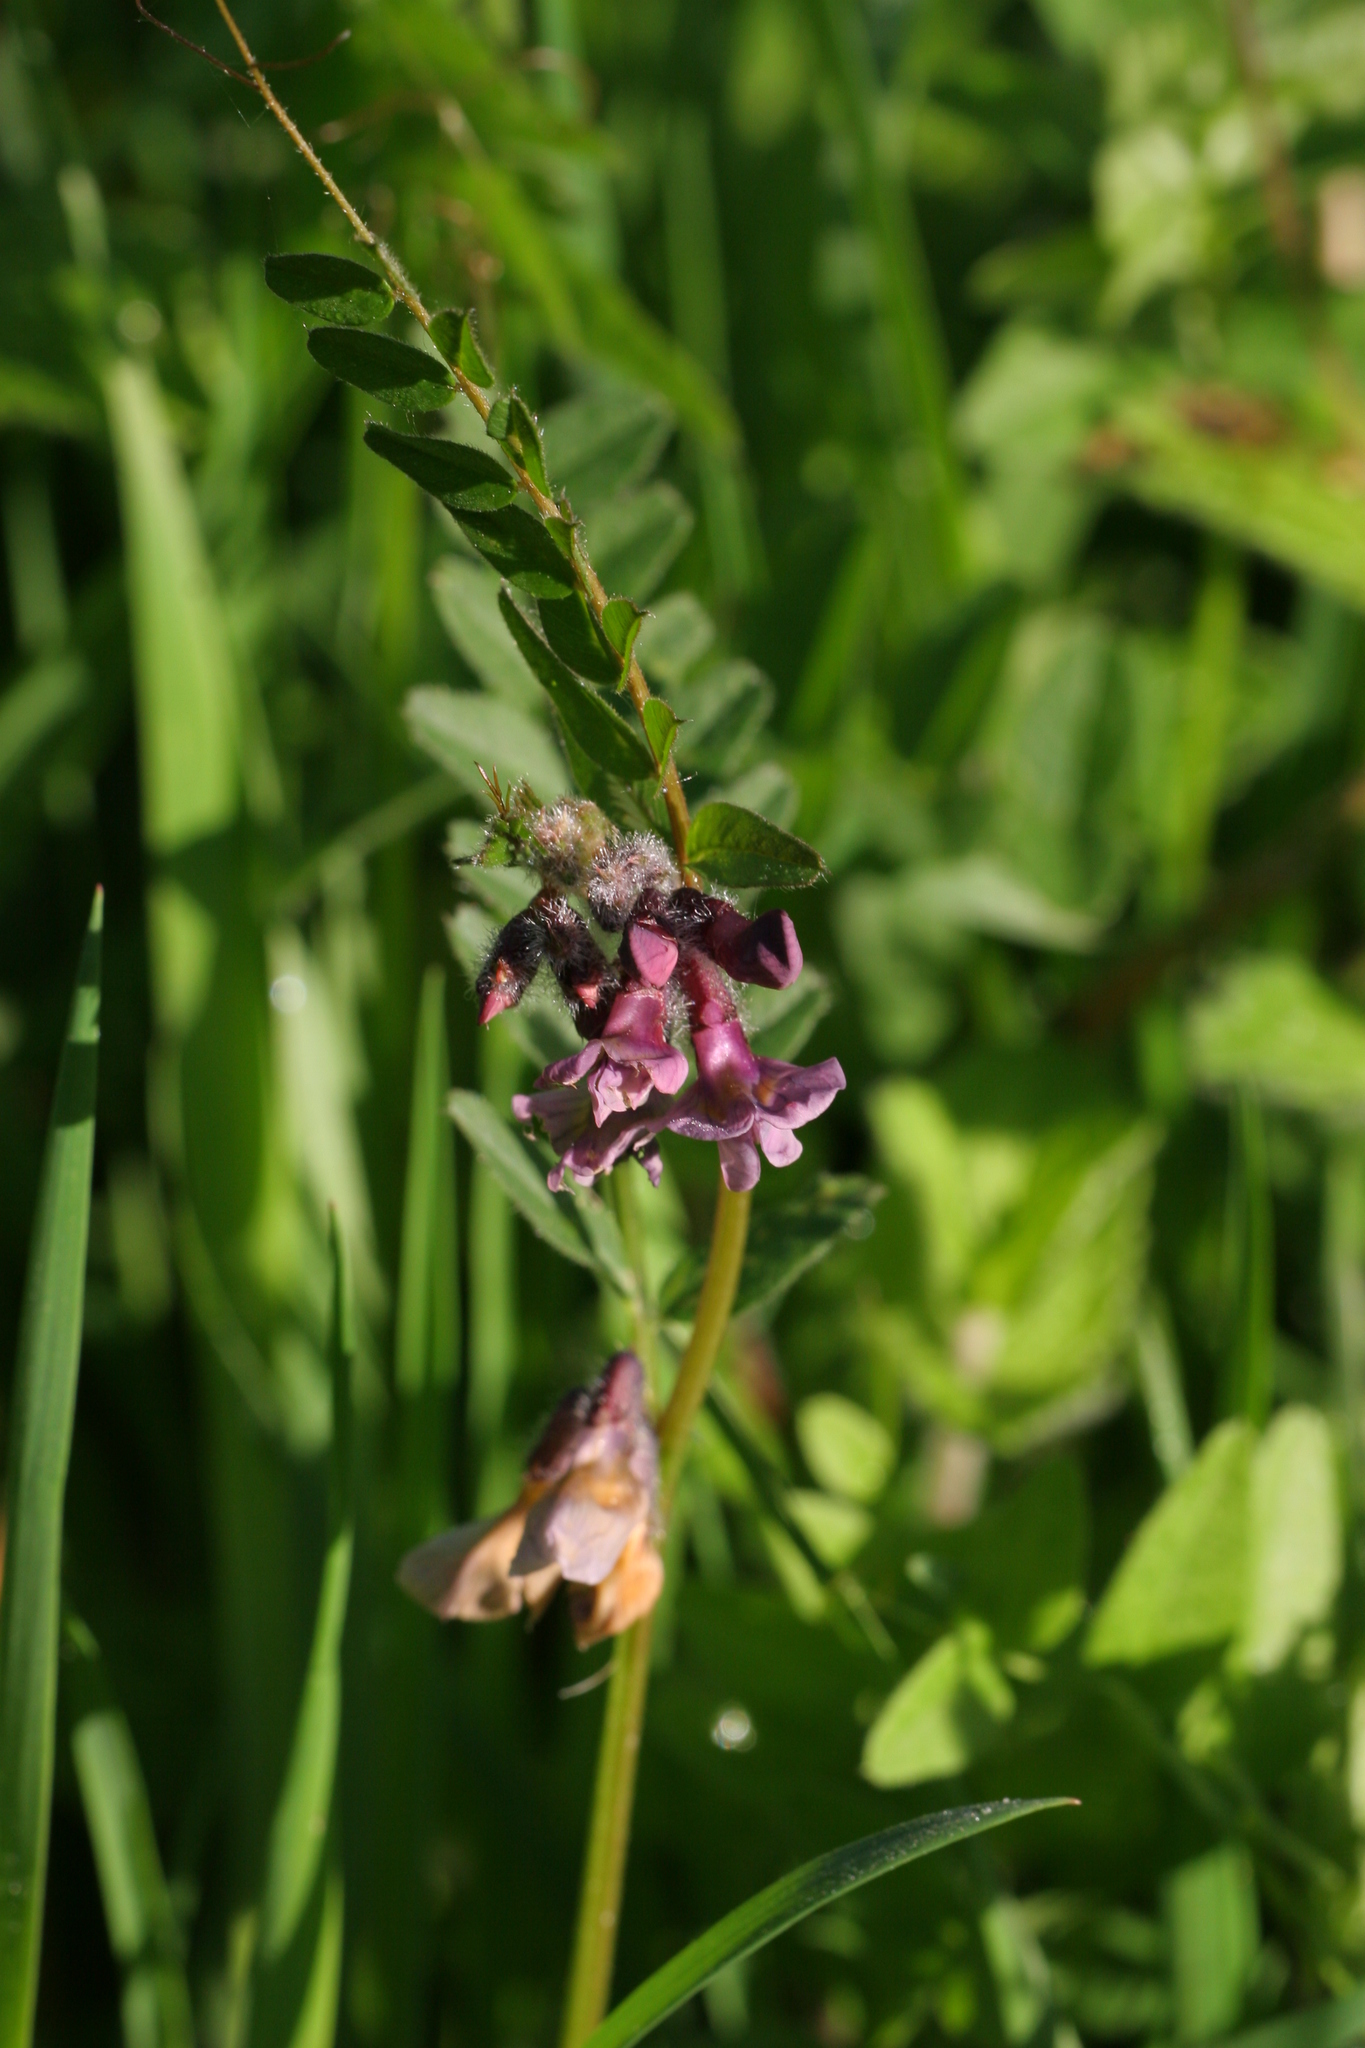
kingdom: Plantae
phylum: Tracheophyta
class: Magnoliopsida
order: Fabales
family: Fabaceae
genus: Vicia
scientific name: Vicia sepium
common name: Bush vetch
